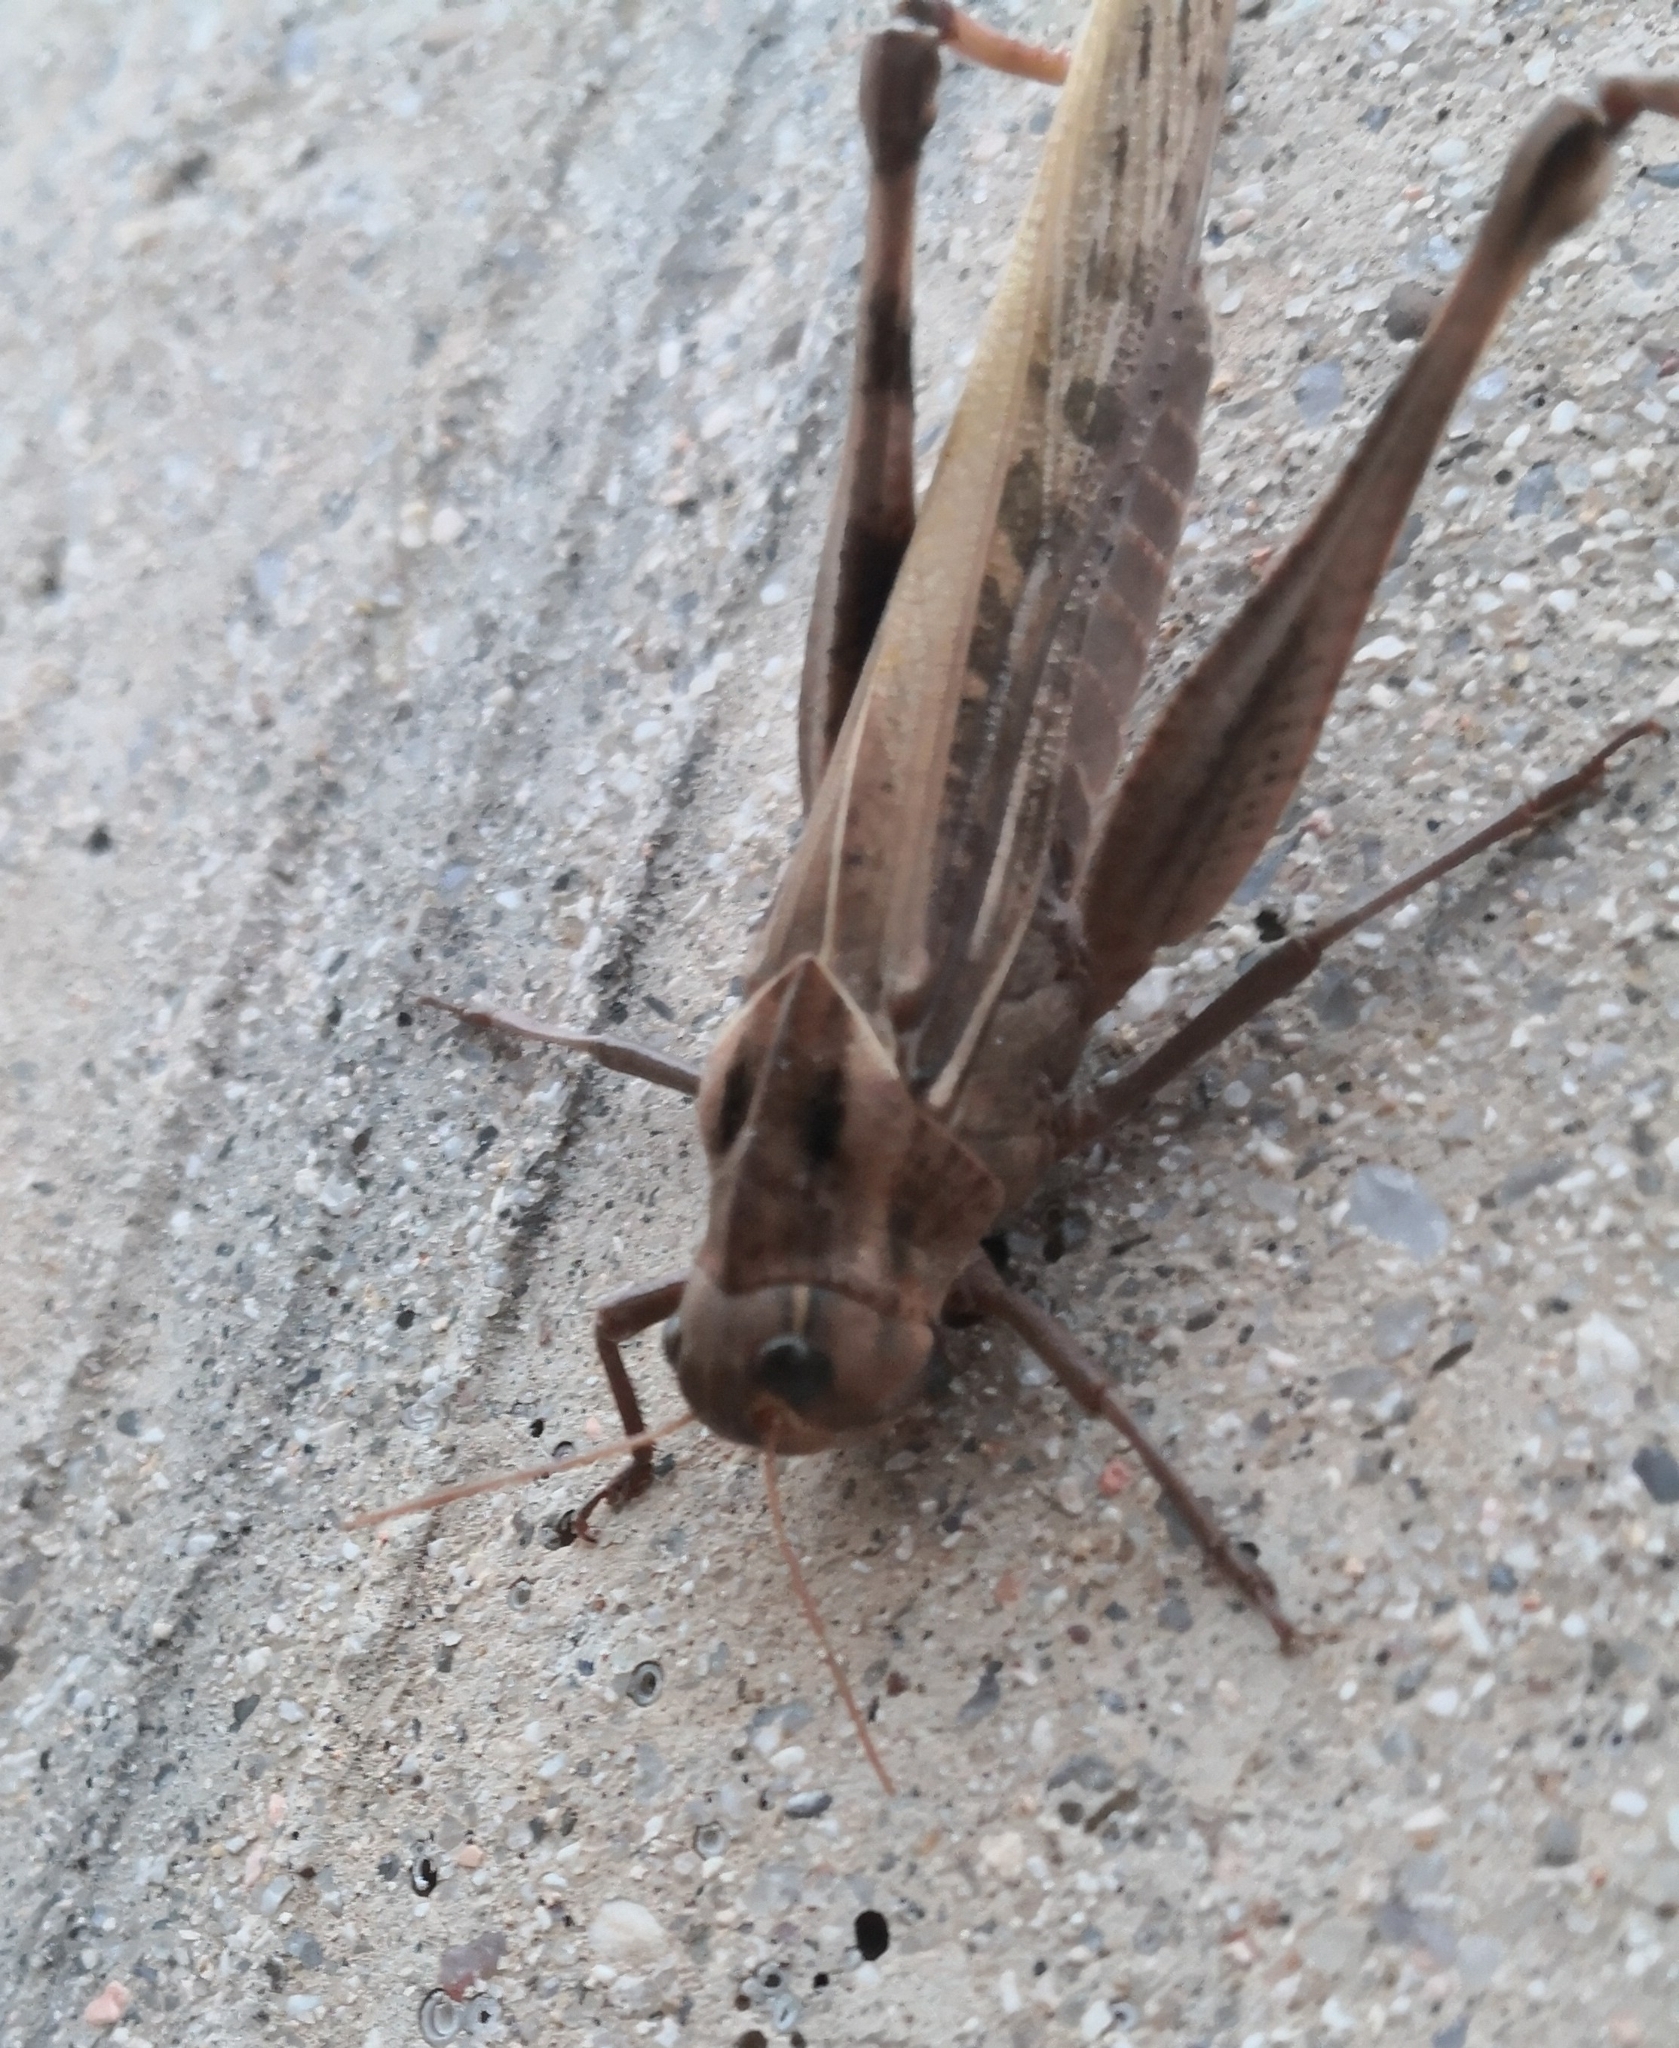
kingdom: Animalia
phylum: Arthropoda
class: Insecta
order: Orthoptera
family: Acrididae
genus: Locusta
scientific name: Locusta migratoria
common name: Migratory locust
